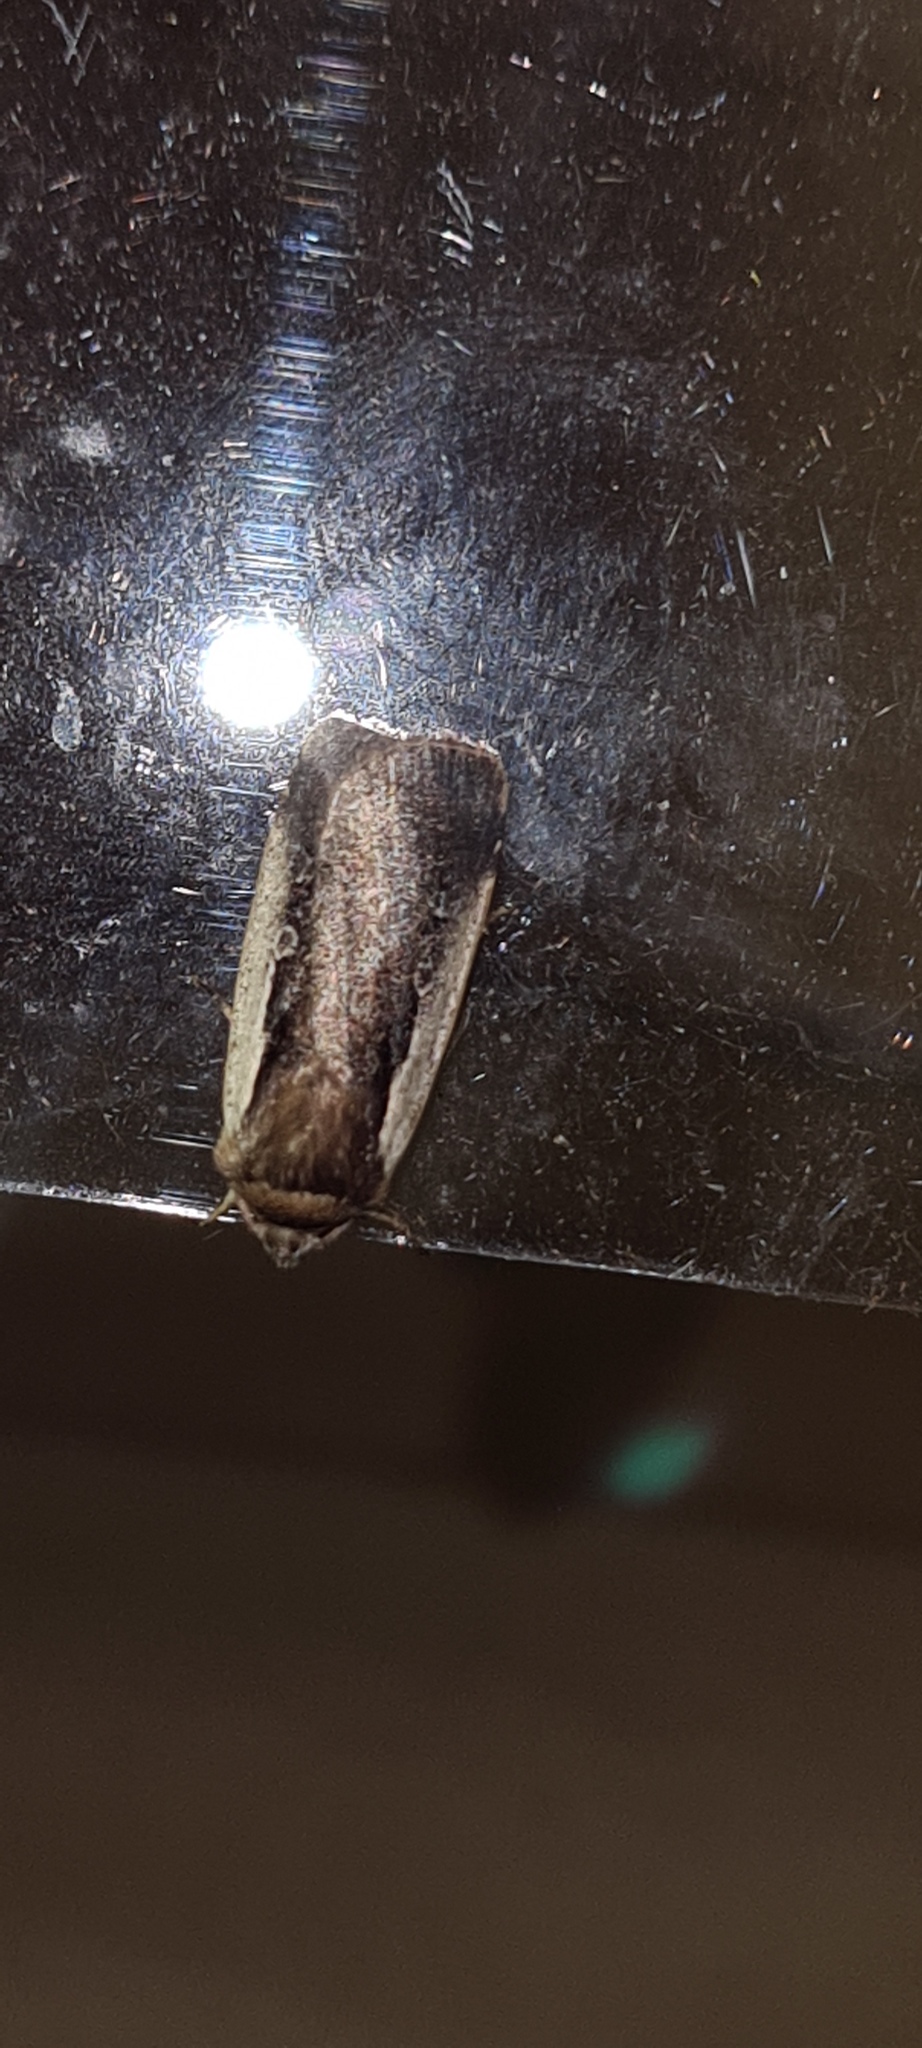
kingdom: Animalia
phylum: Arthropoda
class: Insecta
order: Lepidoptera
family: Noctuidae
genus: Ochropleura
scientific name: Ochropleura plecta
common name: Flame shoulder
